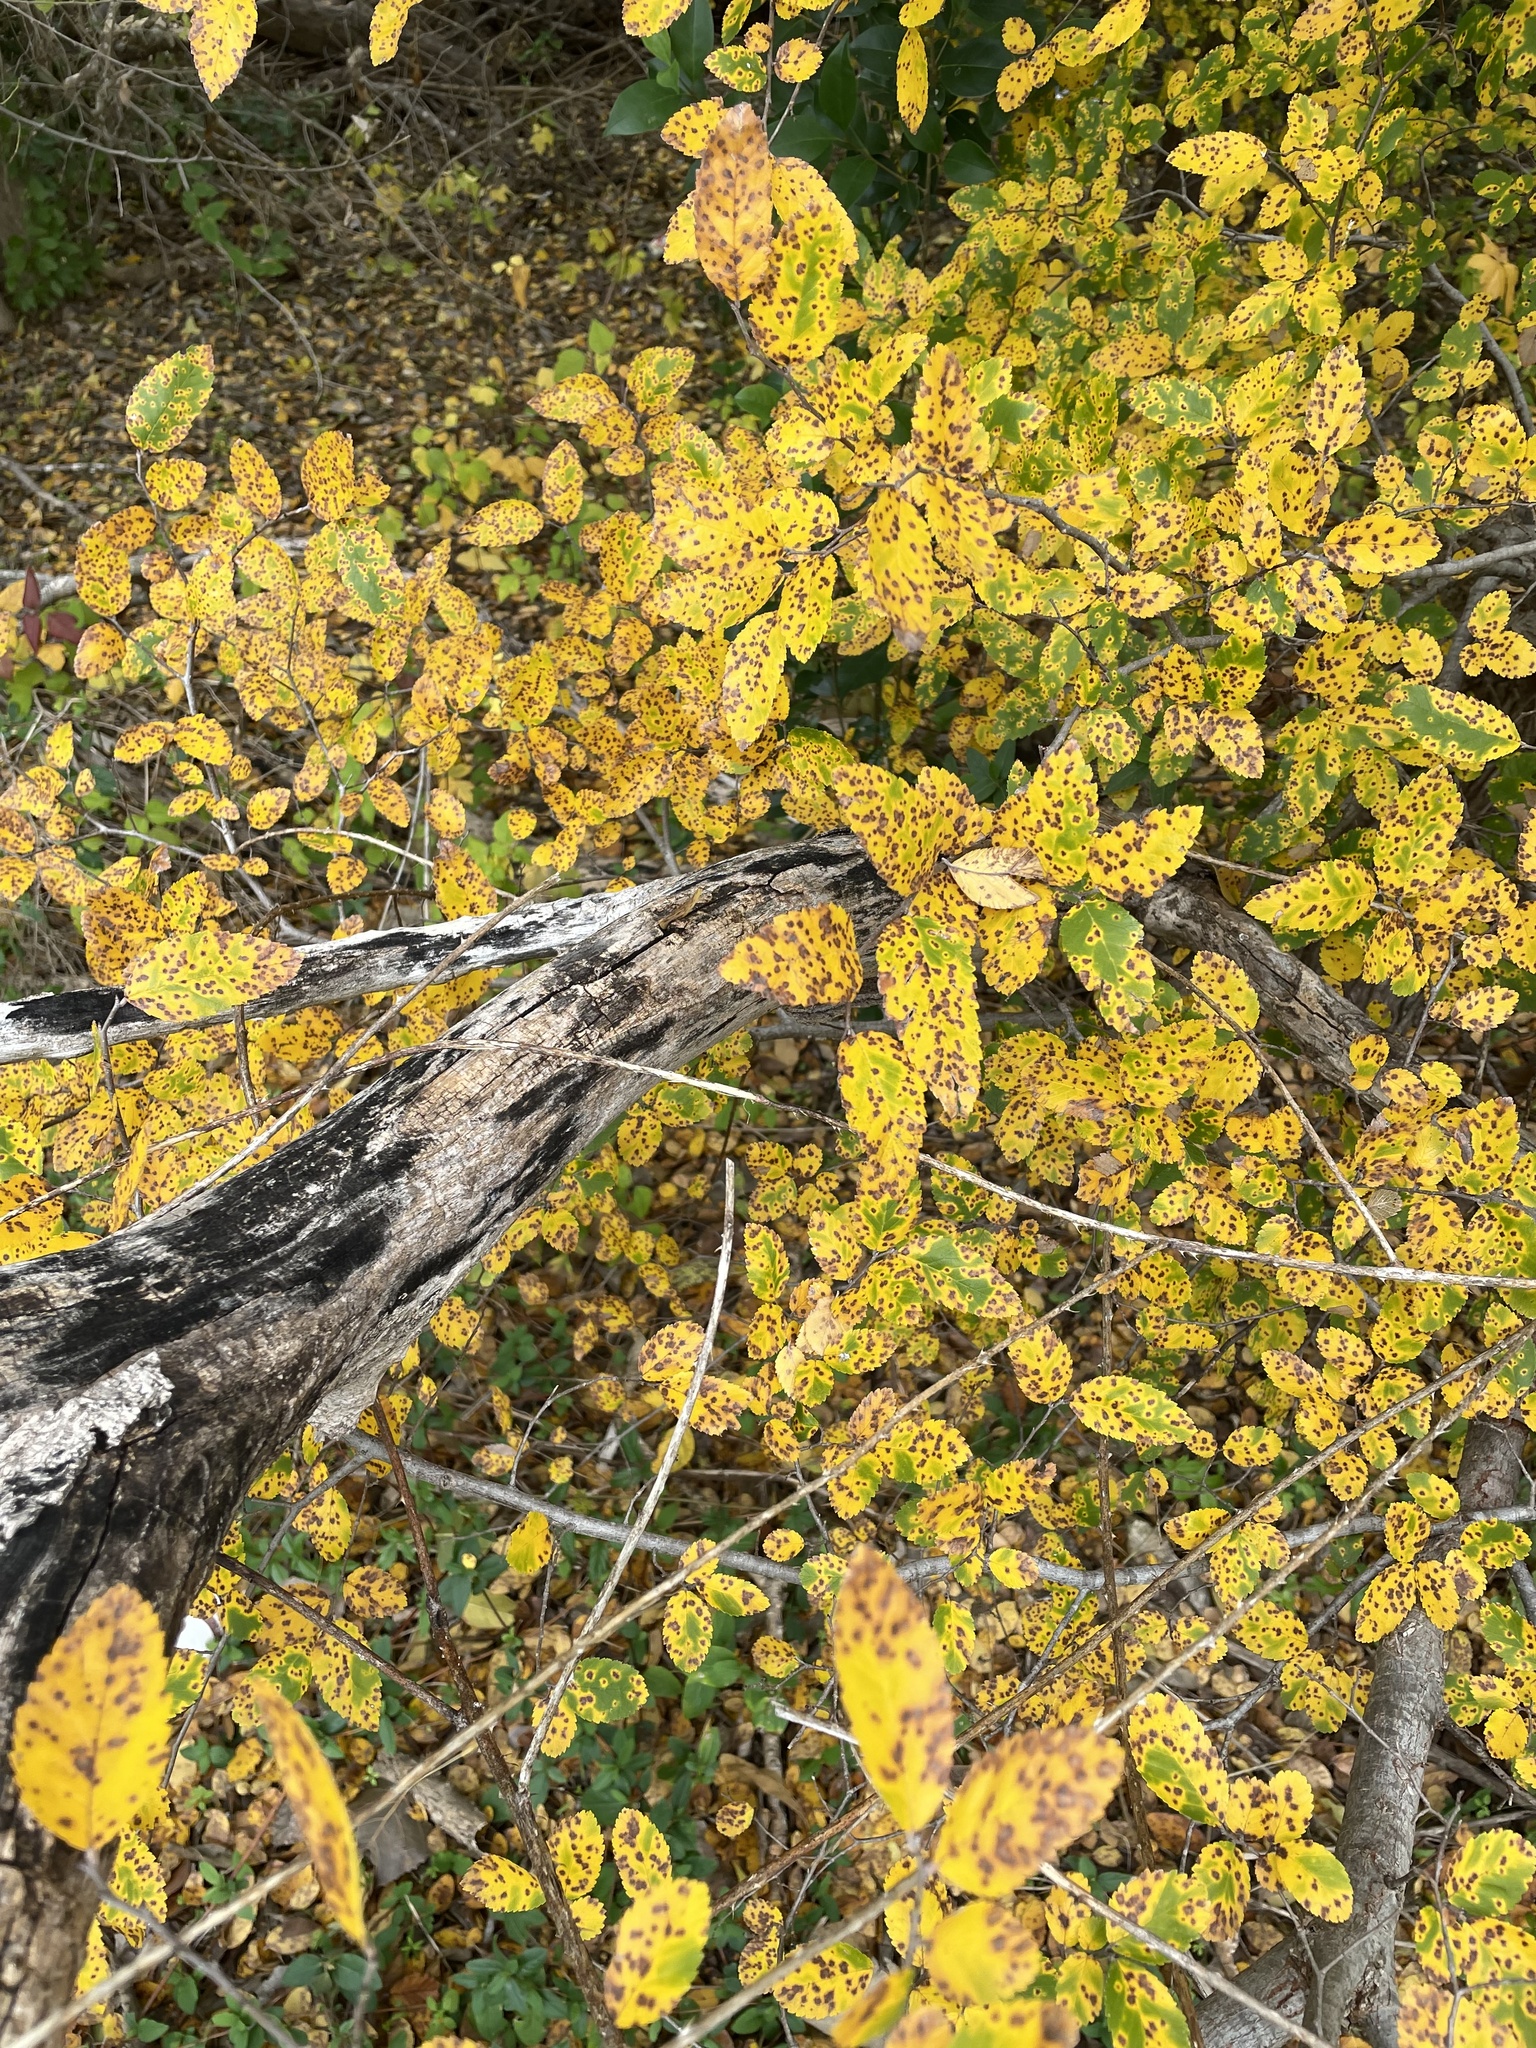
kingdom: Plantae
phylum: Tracheophyta
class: Magnoliopsida
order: Rosales
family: Ulmaceae
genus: Ulmus
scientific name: Ulmus crassifolia
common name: Basket elm
